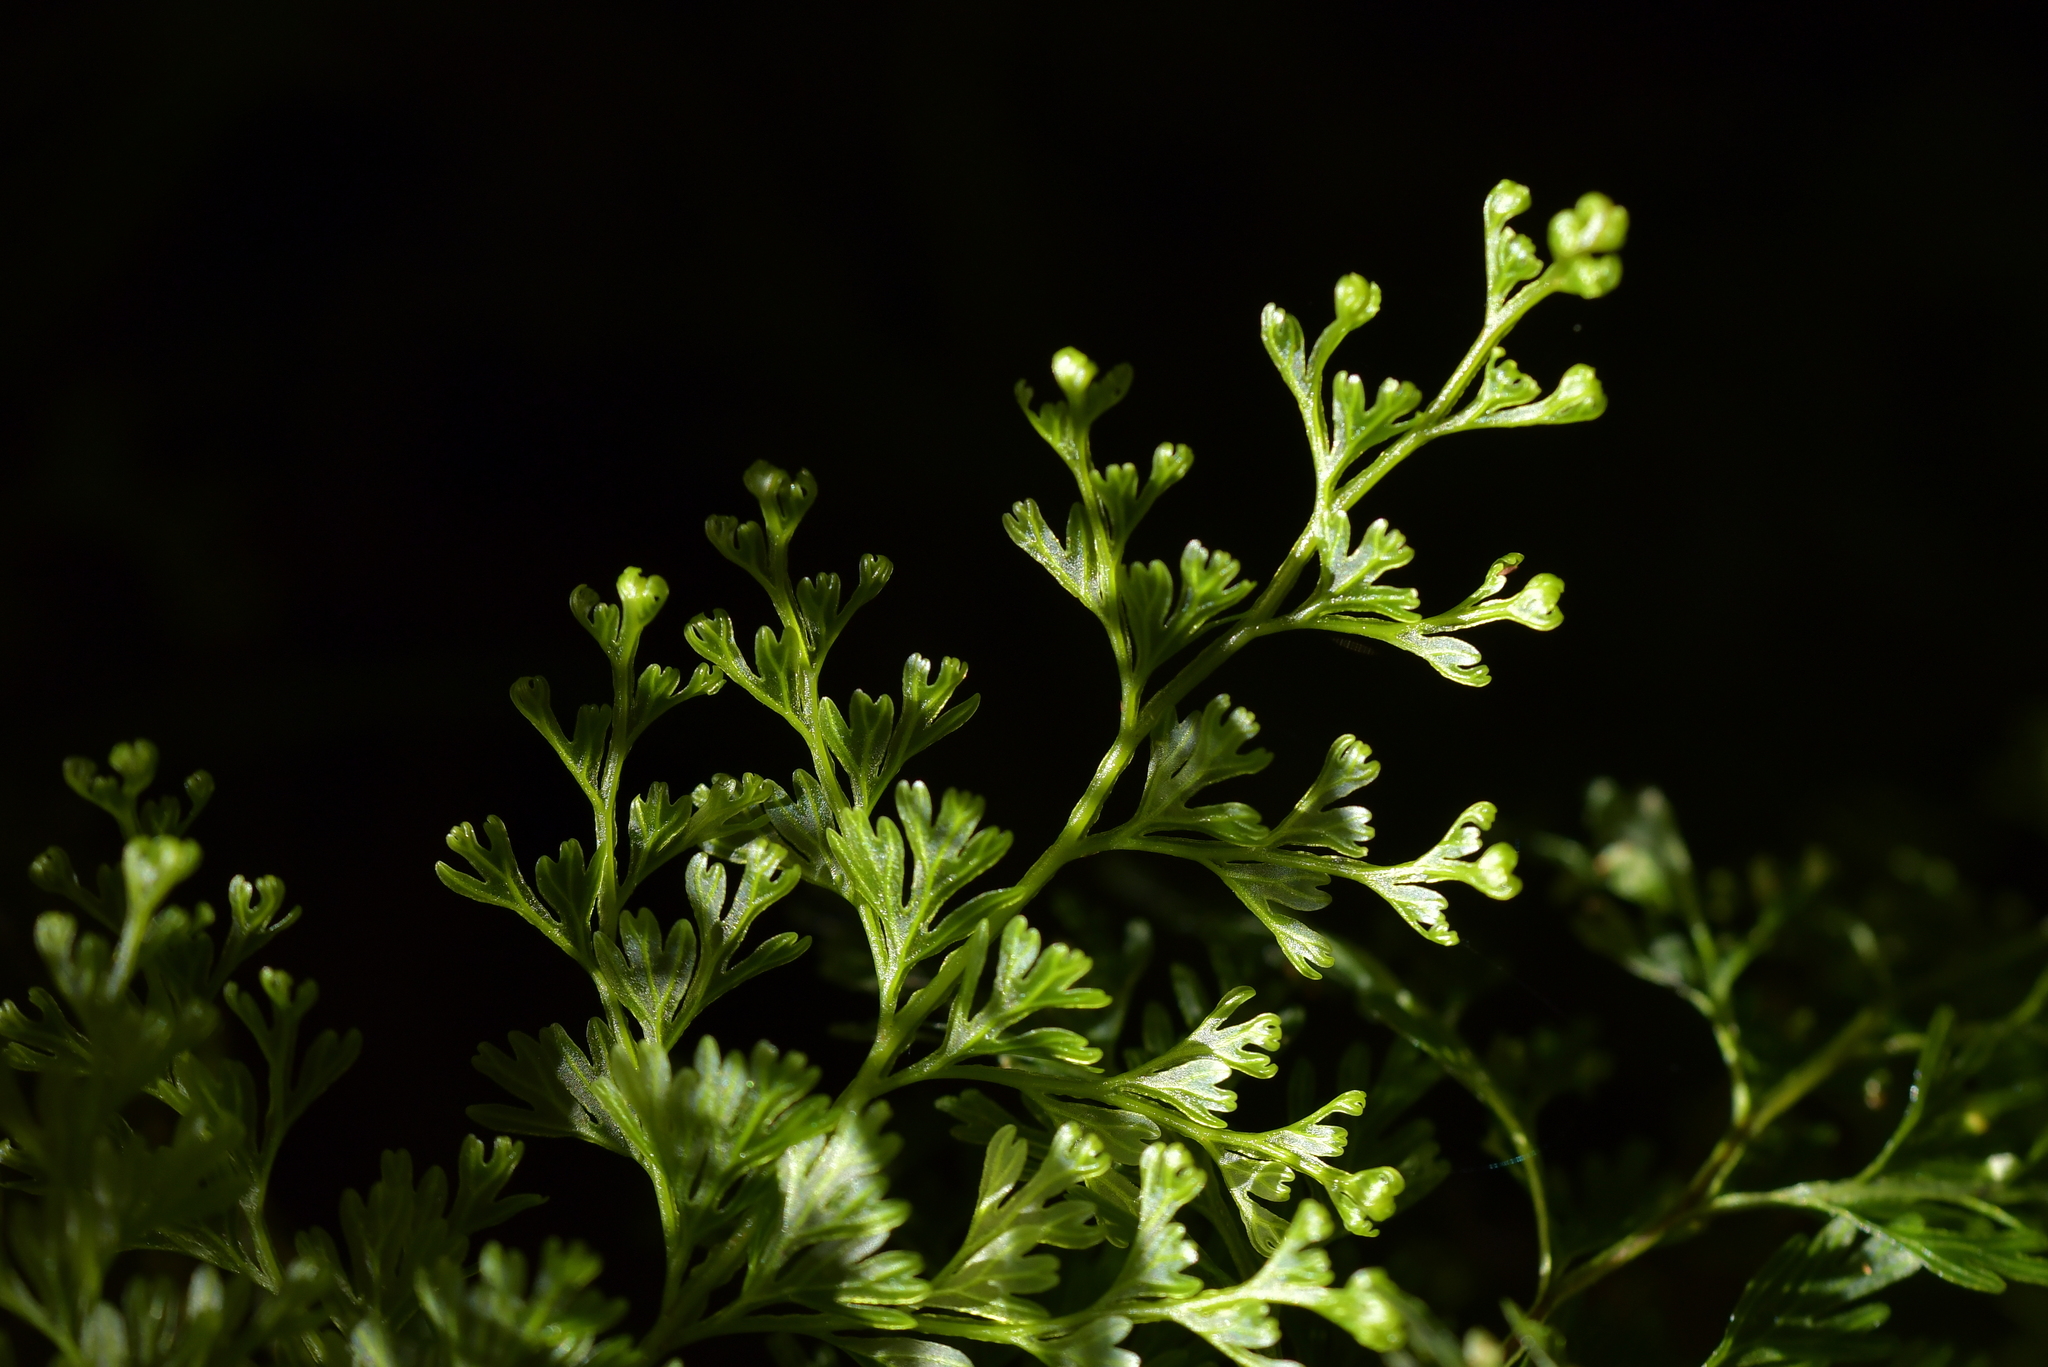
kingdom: Plantae
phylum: Tracheophyta
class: Polypodiopsida
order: Hymenophyllales
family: Hymenophyllaceae
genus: Hymenophyllum
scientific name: Hymenophyllum demissum
